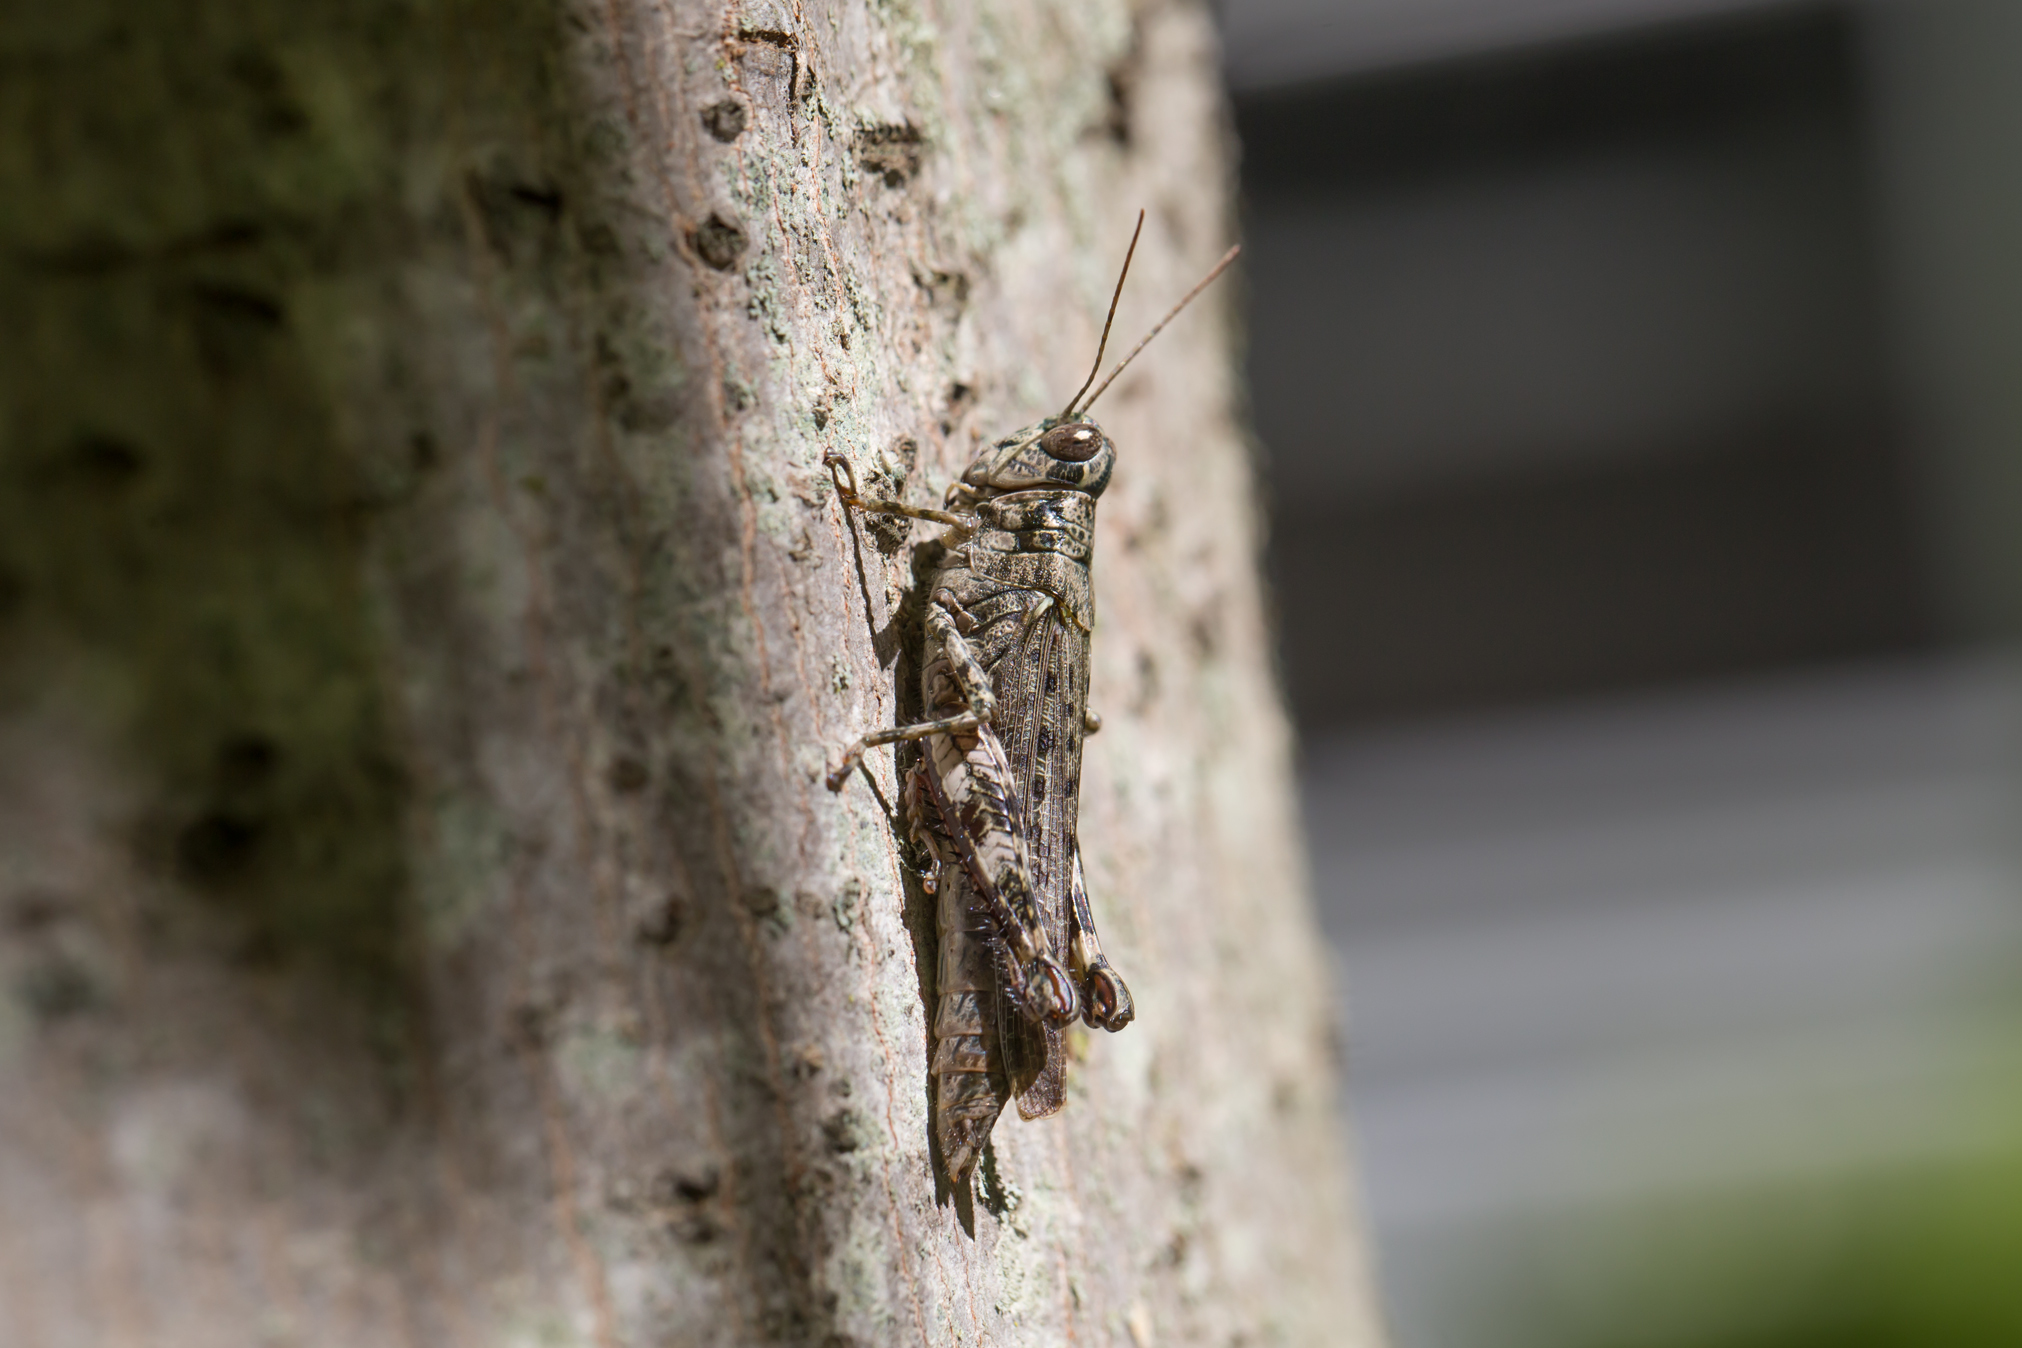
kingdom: Animalia
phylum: Arthropoda
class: Insecta
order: Orthoptera
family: Acrididae
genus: Melanoplus
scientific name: Melanoplus punctulatus
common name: Pine-tree spur-throat grasshopper
